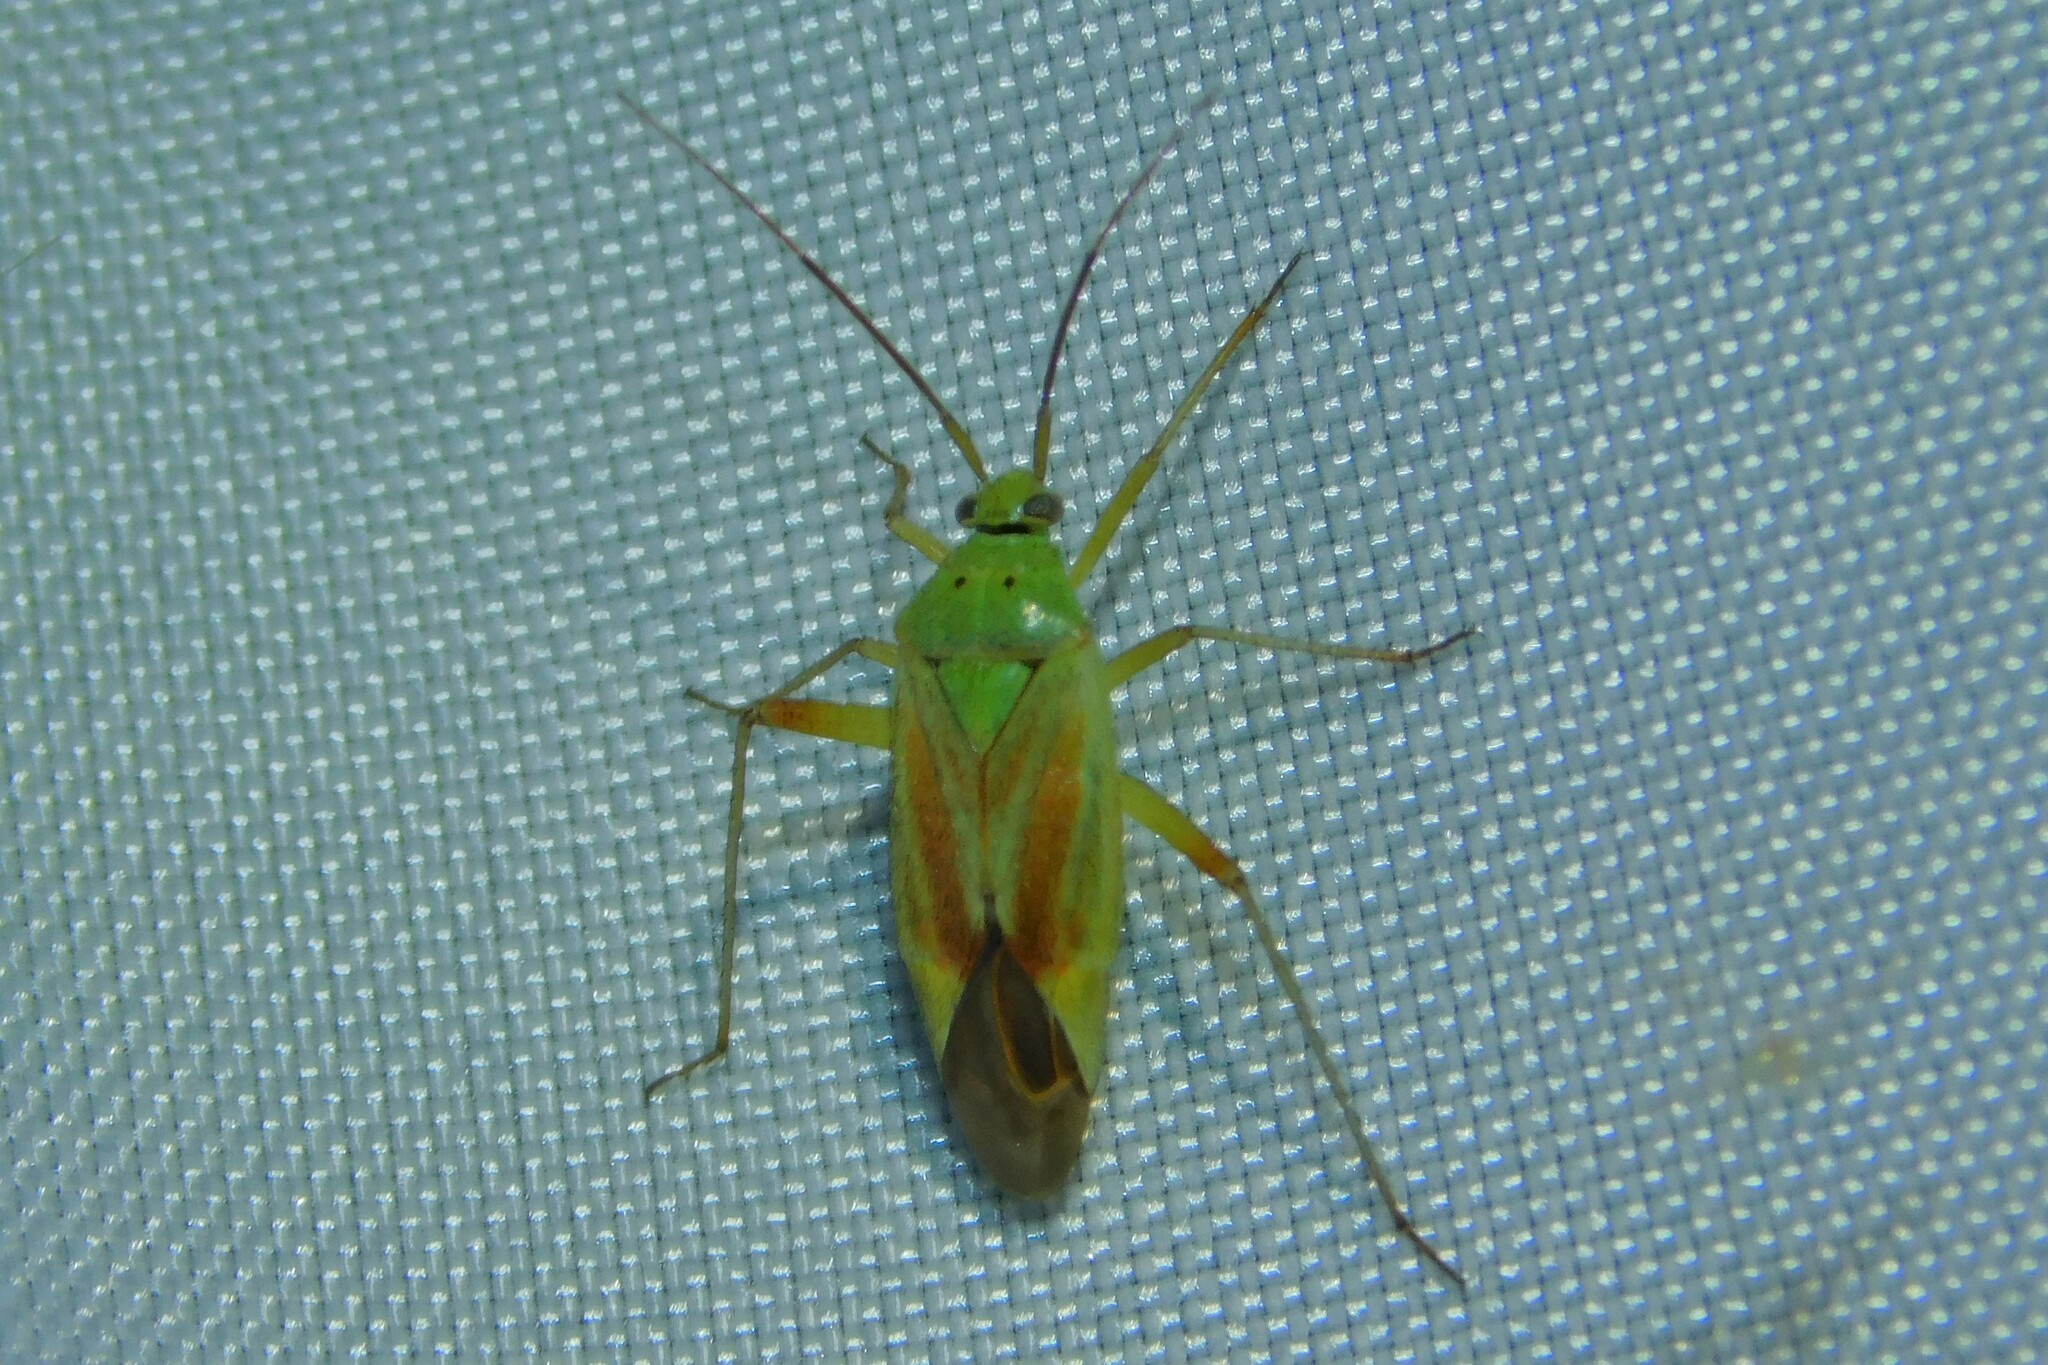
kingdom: Animalia
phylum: Arthropoda
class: Insecta
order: Hemiptera
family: Miridae
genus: Closterotomus
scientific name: Closterotomus norvegicus
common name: Plant bug
